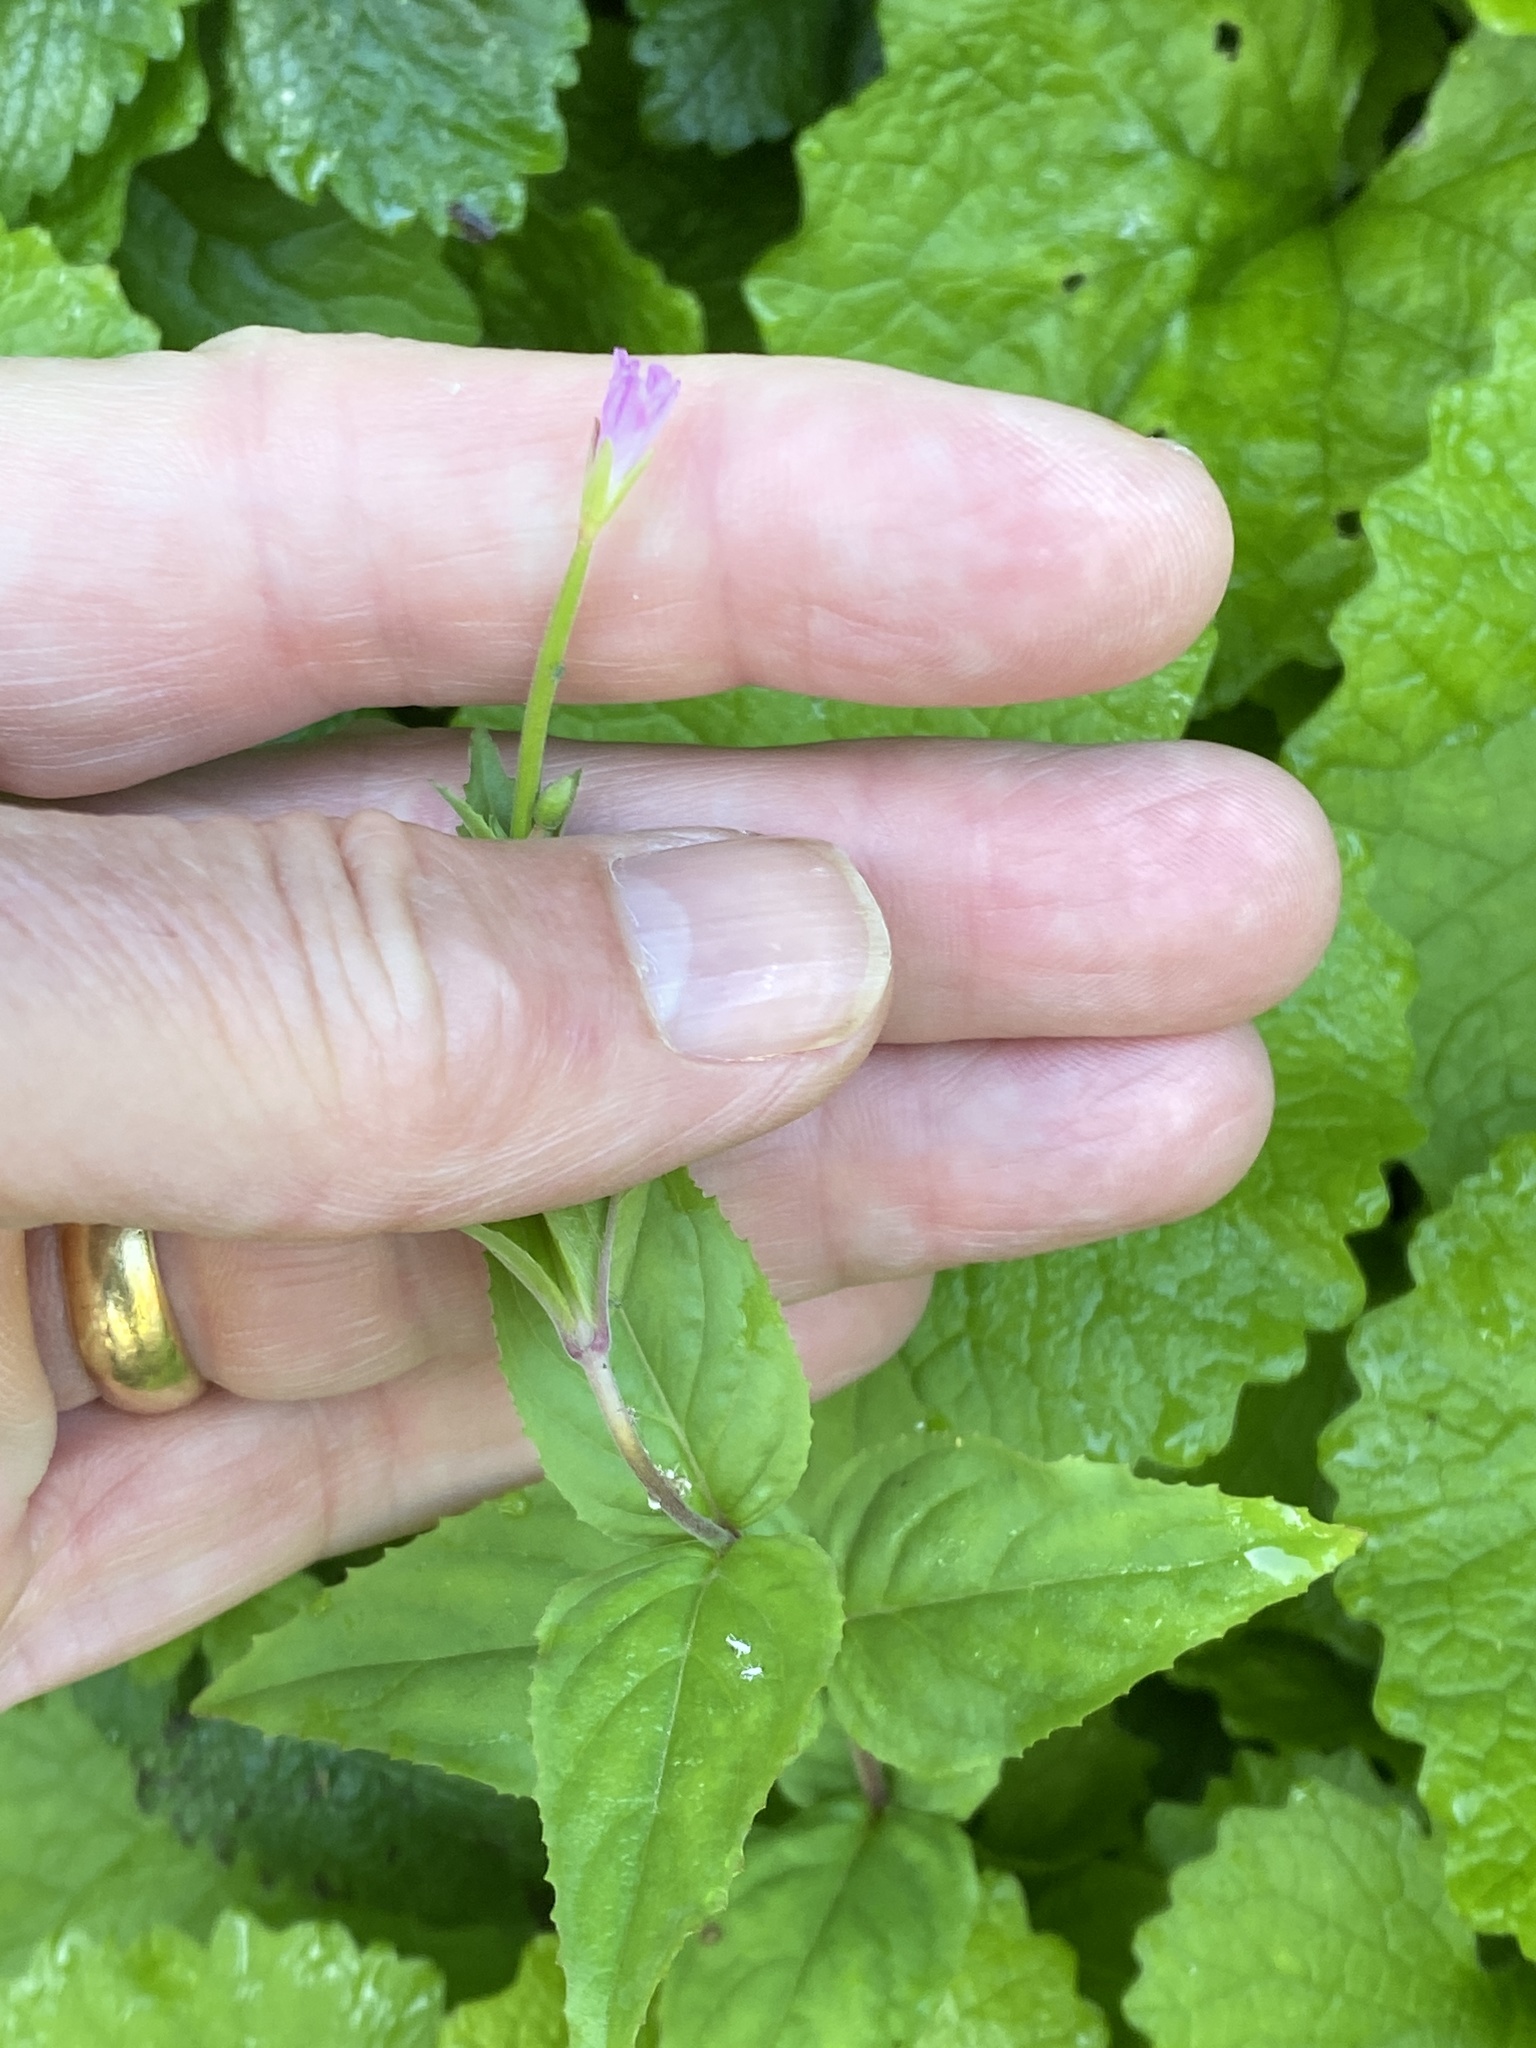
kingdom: Plantae
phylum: Tracheophyta
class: Magnoliopsida
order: Myrtales
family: Onagraceae
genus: Epilobium
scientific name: Epilobium montanum
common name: Broad-leaved willowherb
